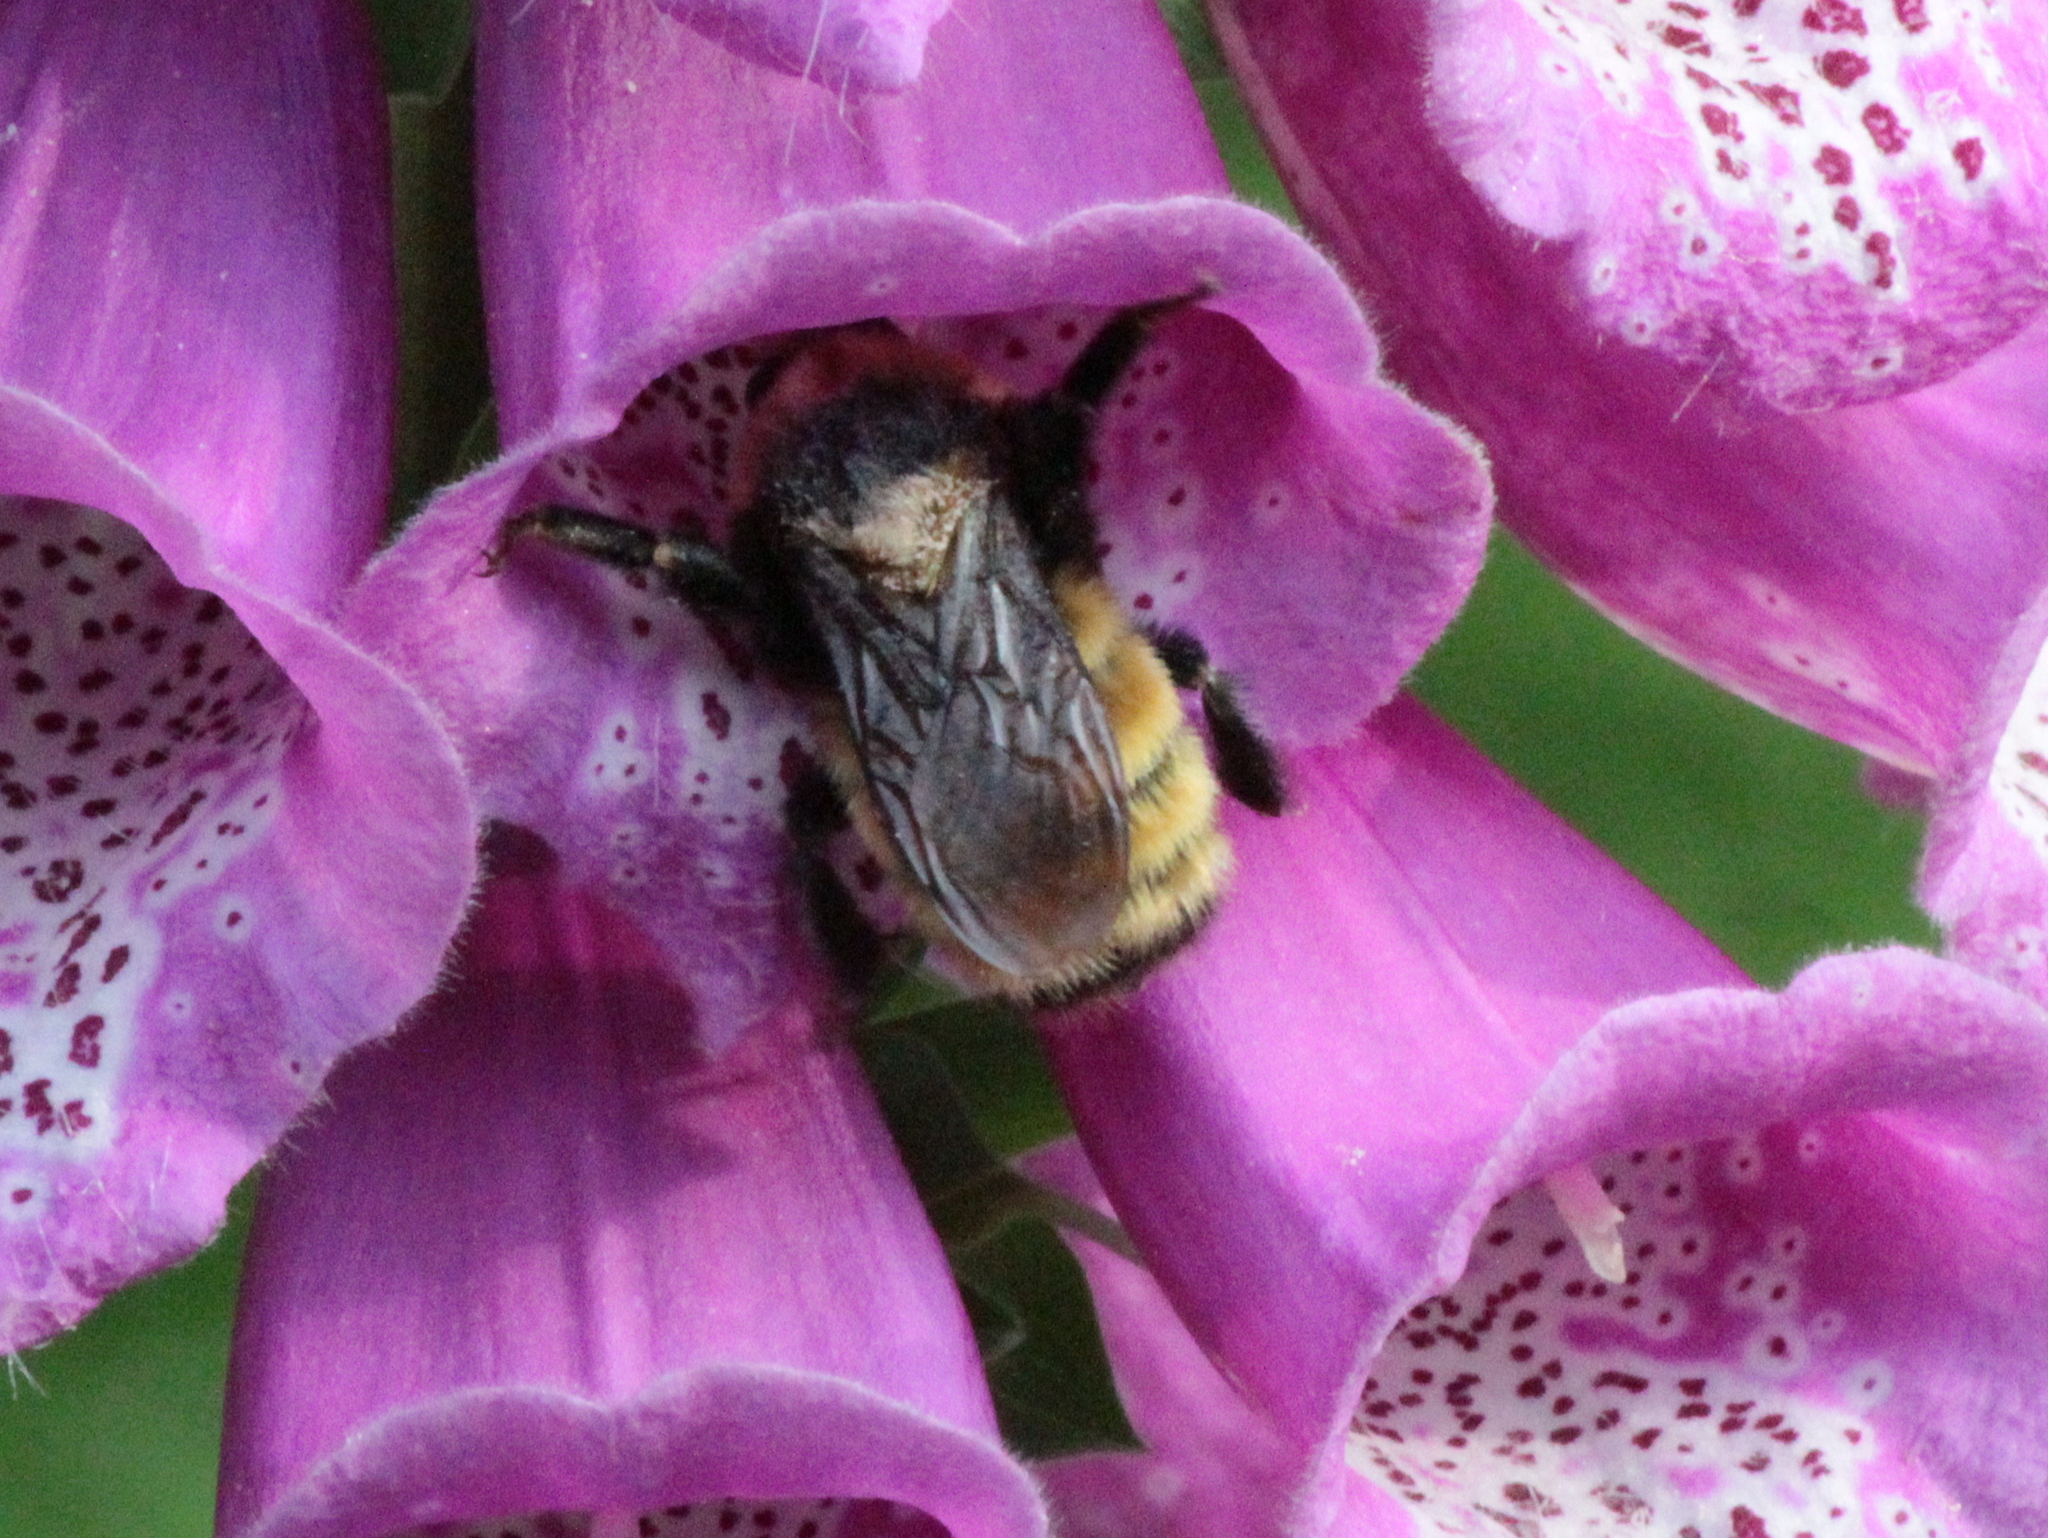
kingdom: Animalia
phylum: Arthropoda
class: Insecta
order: Hymenoptera
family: Apidae
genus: Bombus
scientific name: Bombus borealis
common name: Northern amber bumble bee
